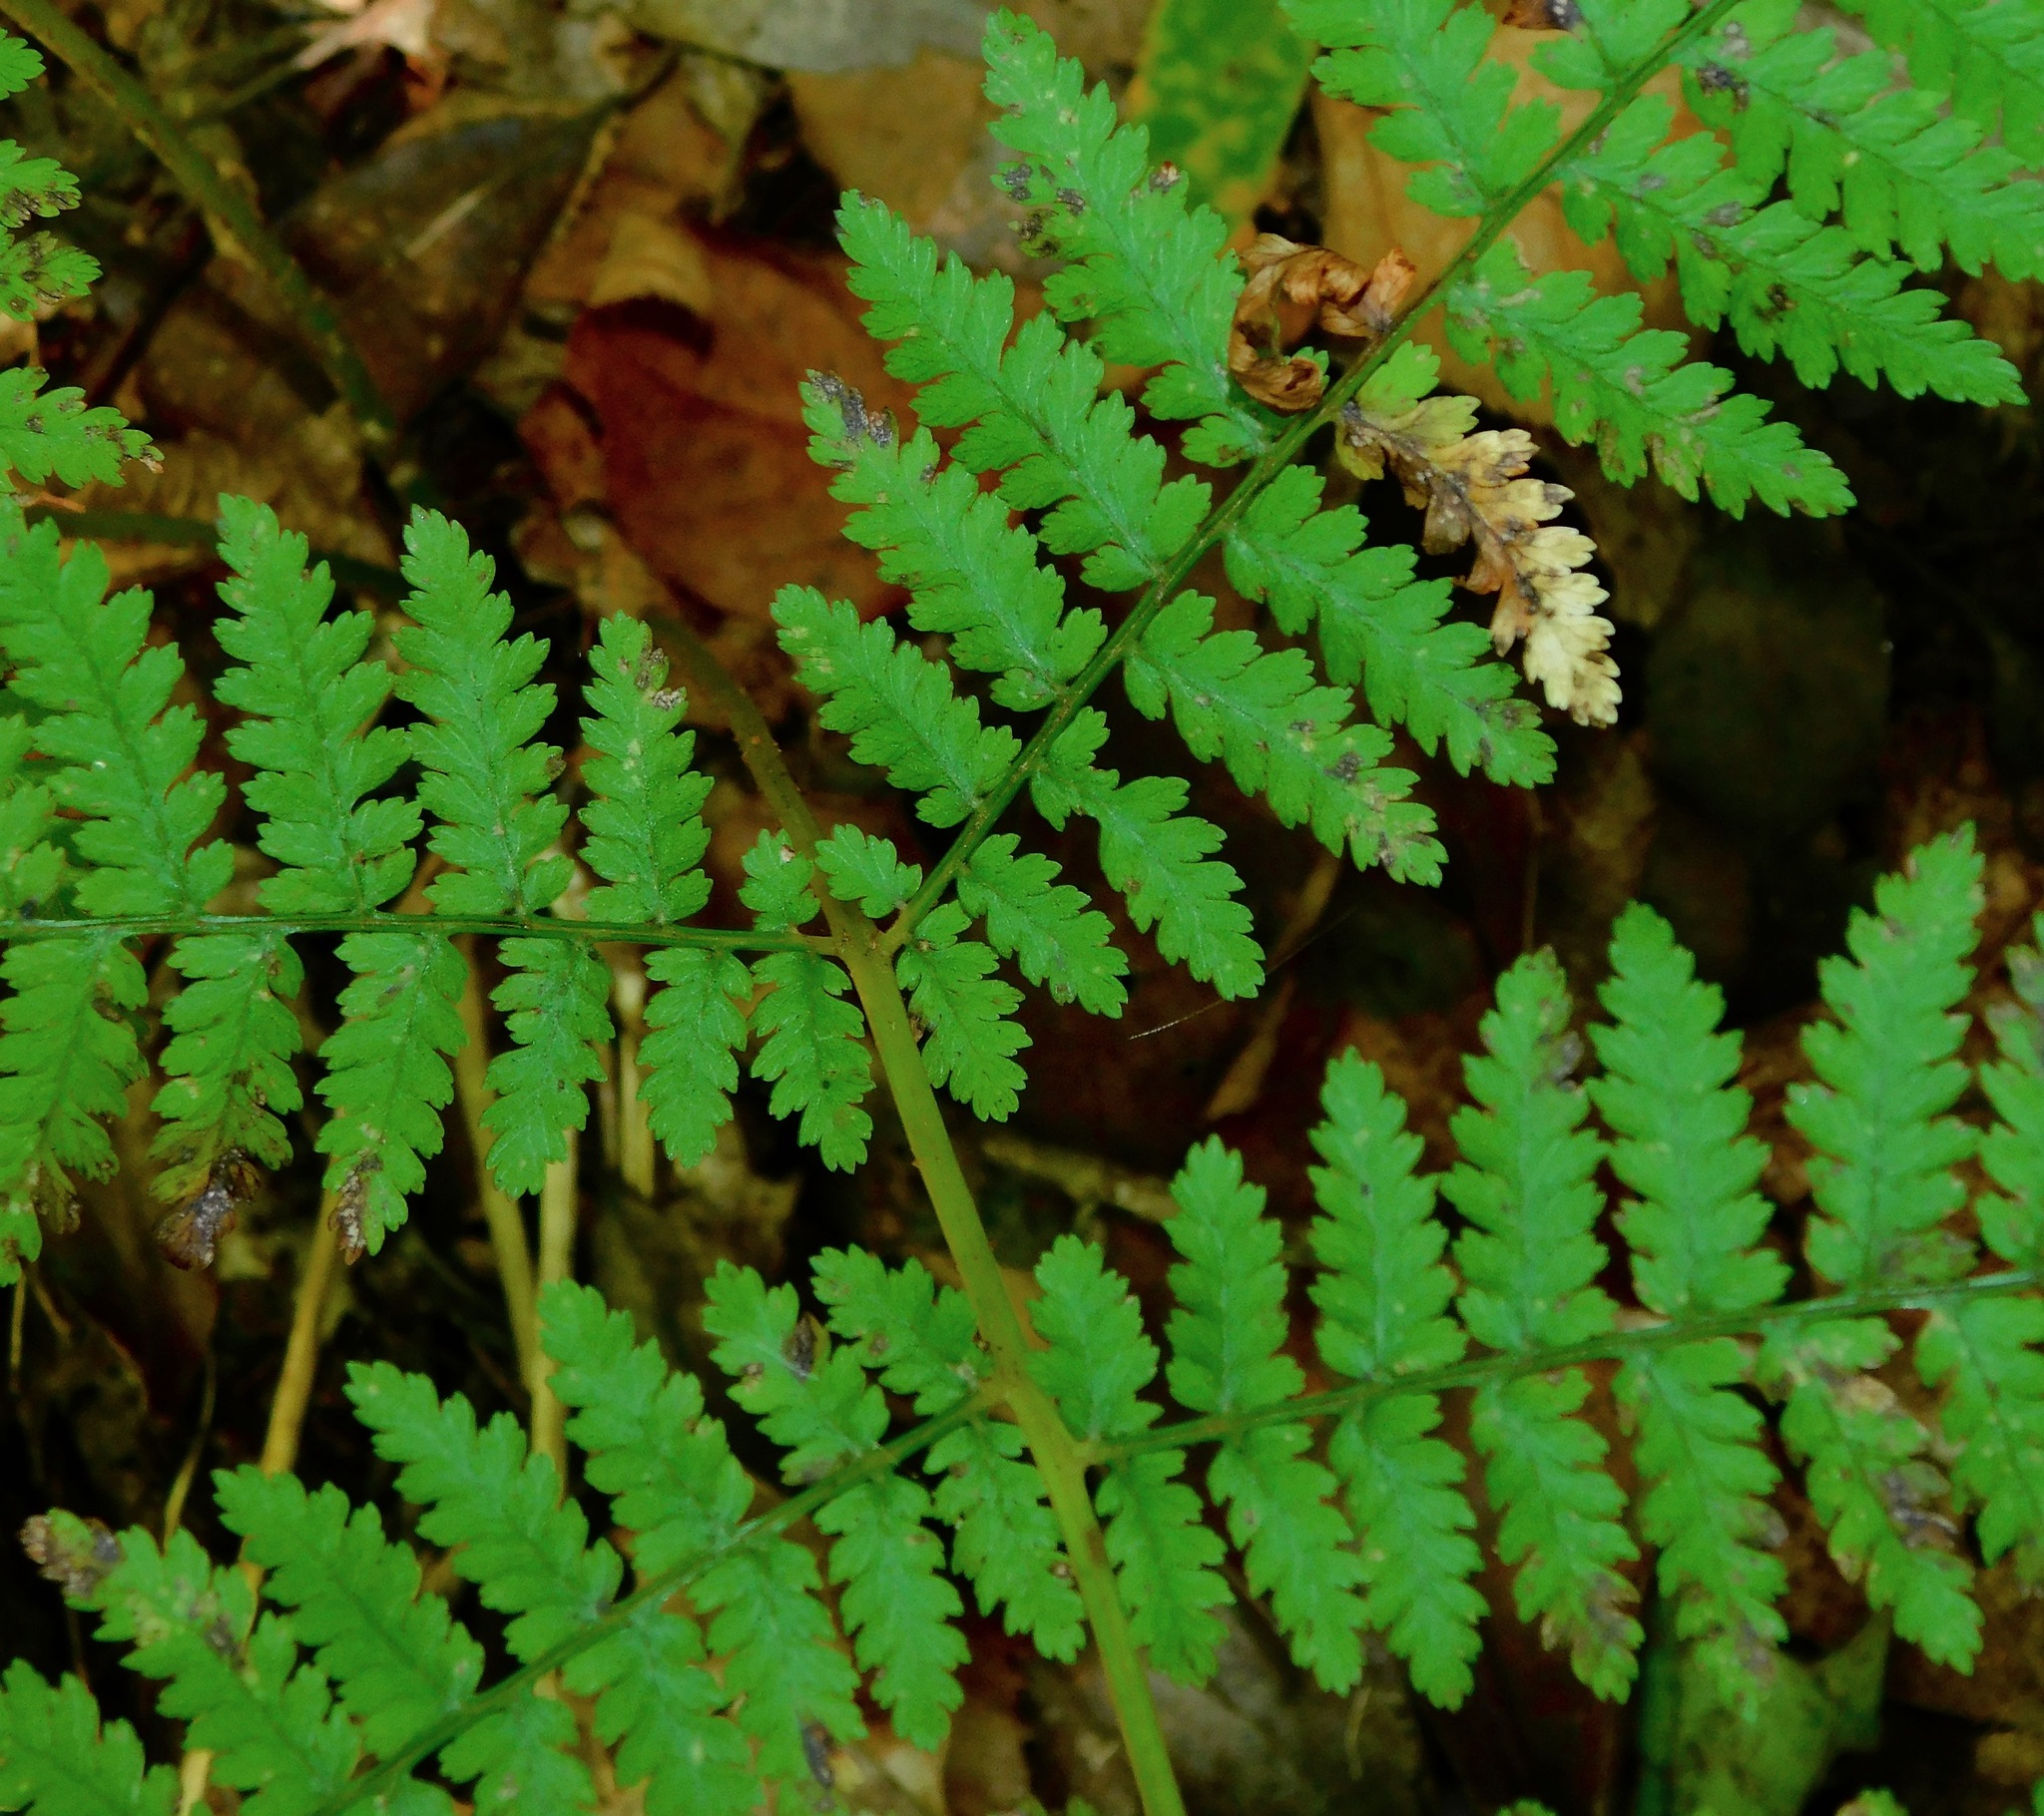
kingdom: Plantae
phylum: Tracheophyta
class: Polypodiopsida
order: Polypodiales
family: Athyriaceae
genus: Athyrium
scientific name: Athyrium asplenioides
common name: Southern lady fern
